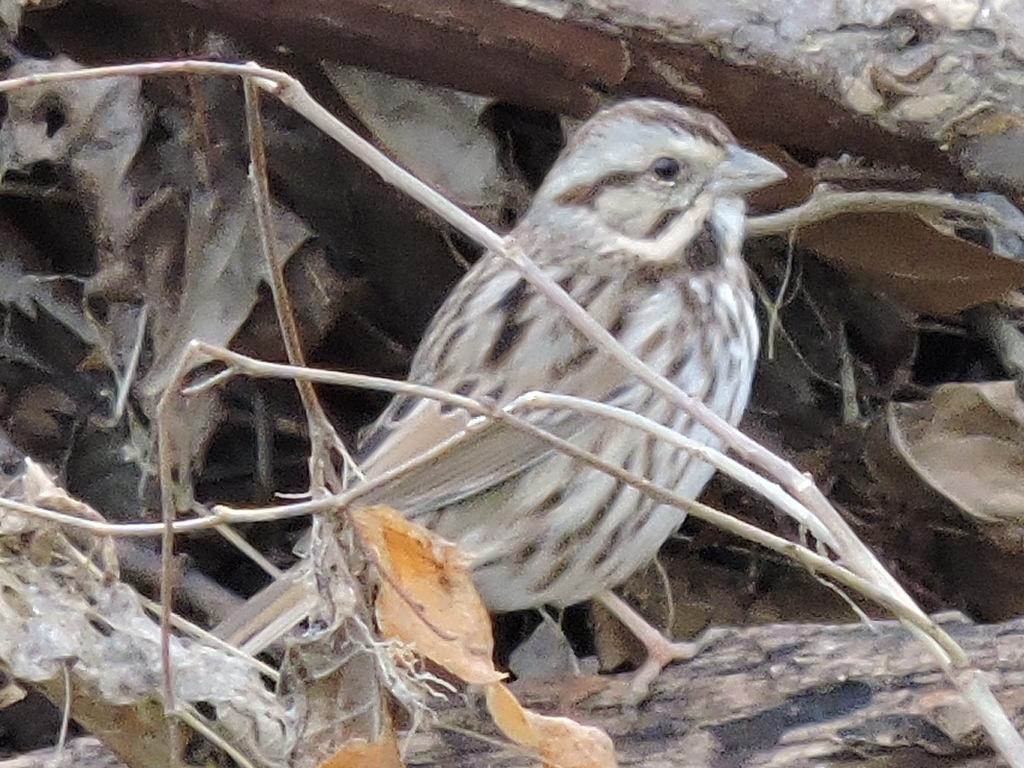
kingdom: Animalia
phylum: Chordata
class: Aves
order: Passeriformes
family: Passerellidae
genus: Melospiza
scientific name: Melospiza melodia
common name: Song sparrow
